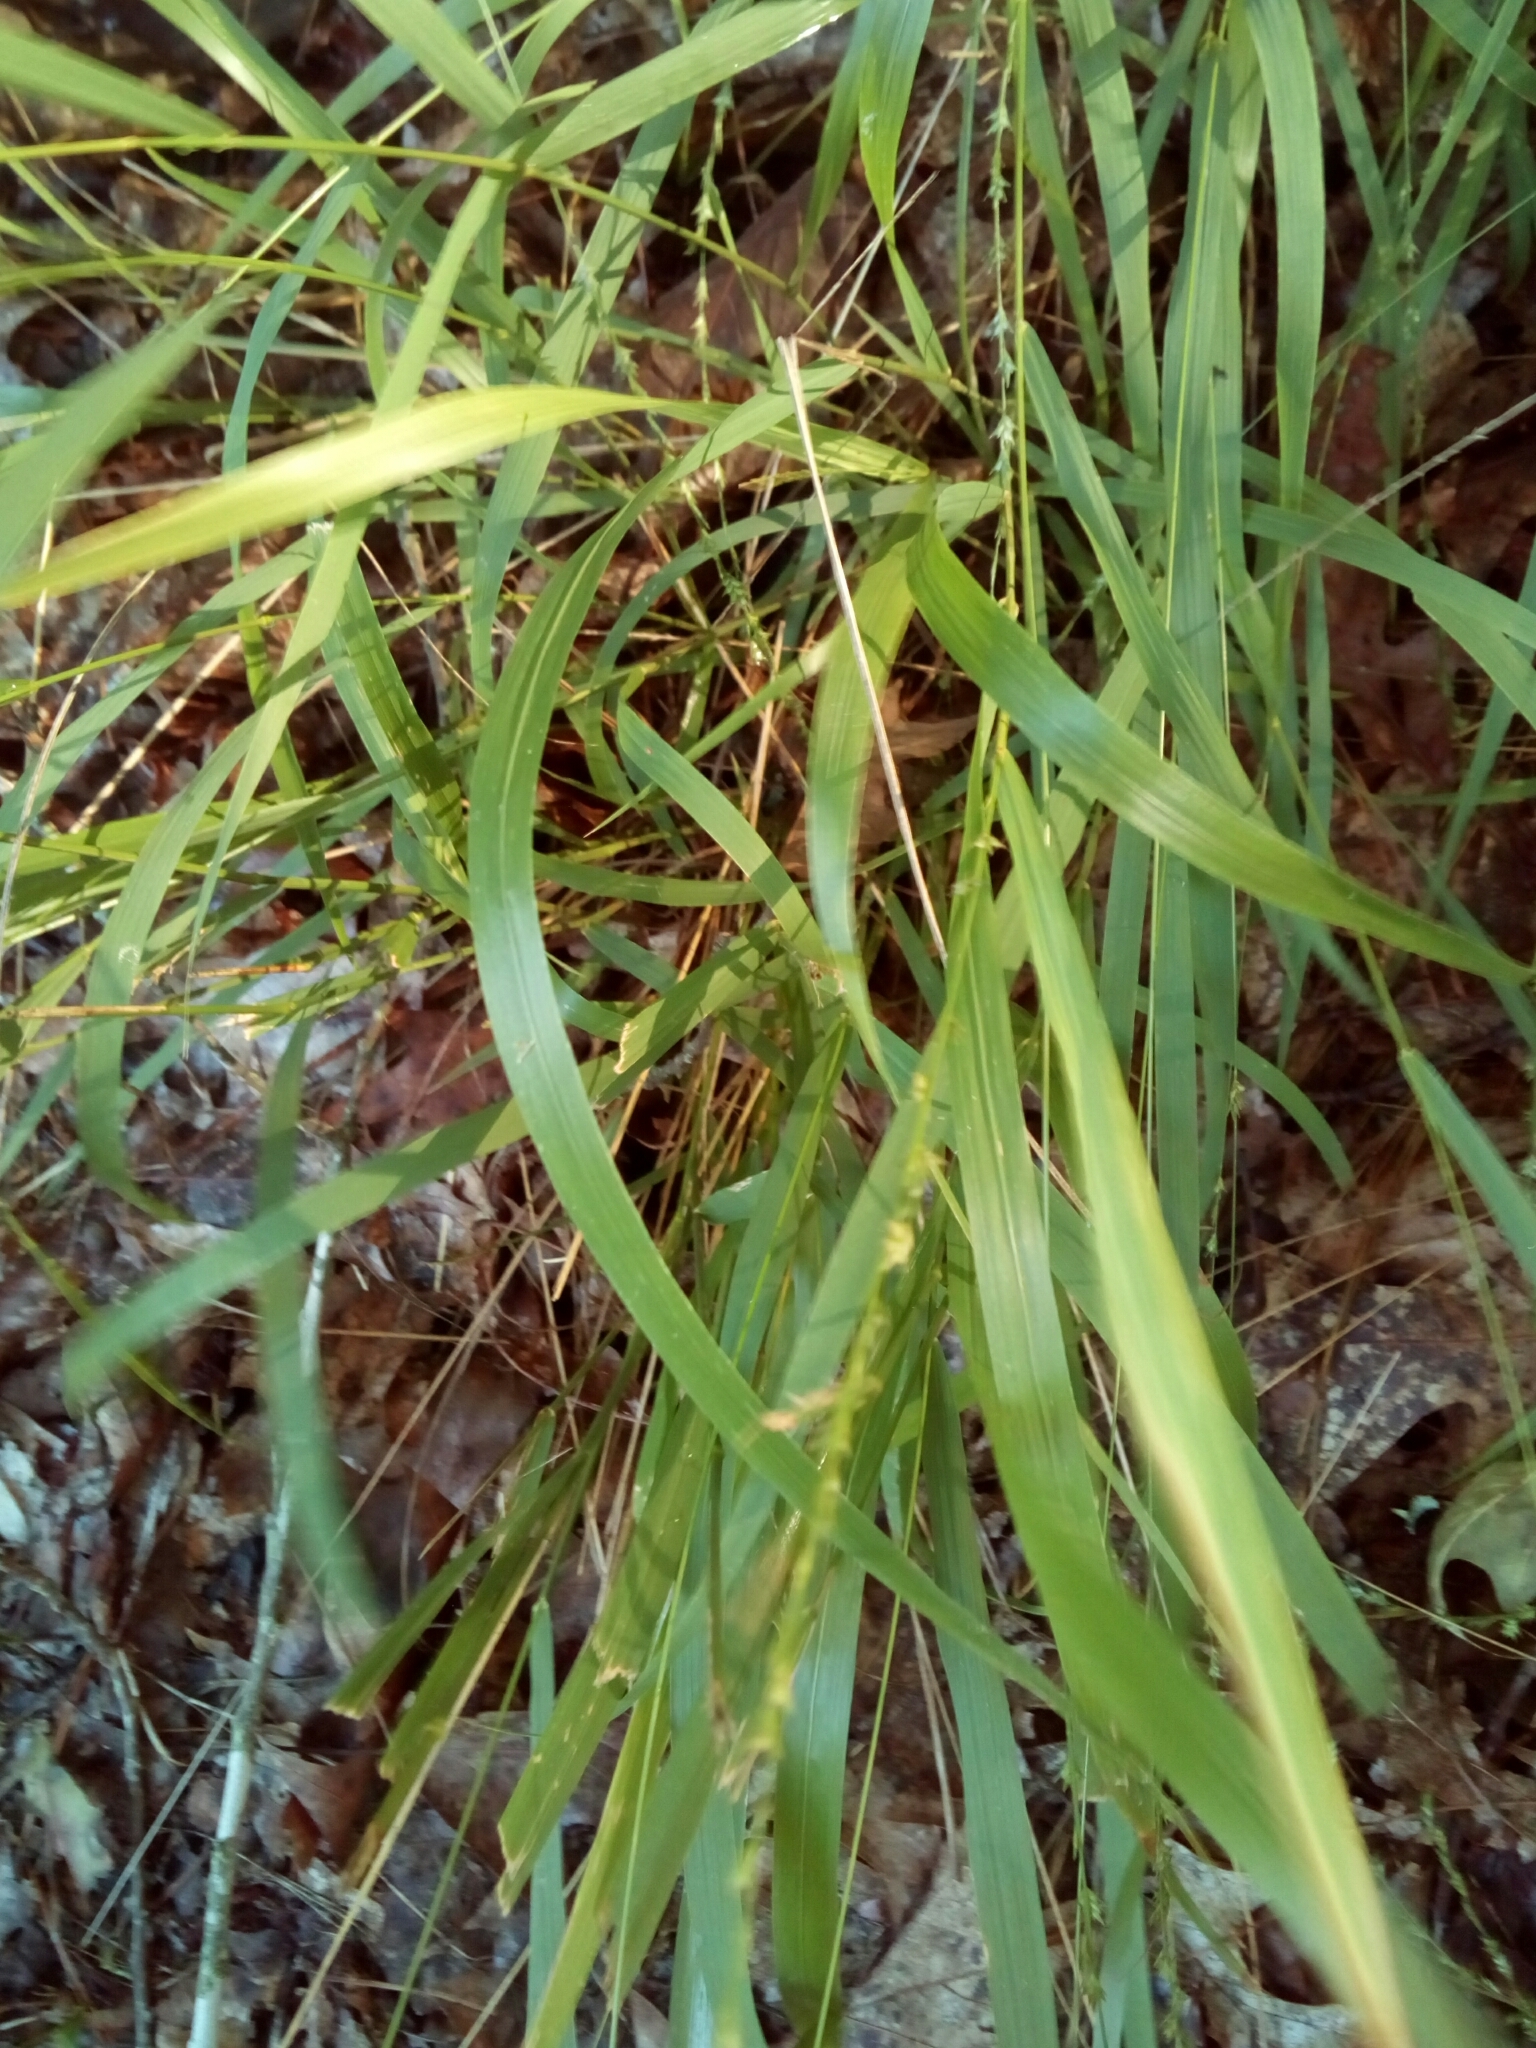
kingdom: Plantae
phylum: Tracheophyta
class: Liliopsida
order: Poales
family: Poaceae
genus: Chasmanthium
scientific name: Chasmanthium laxum
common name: Slender chasmanthium
